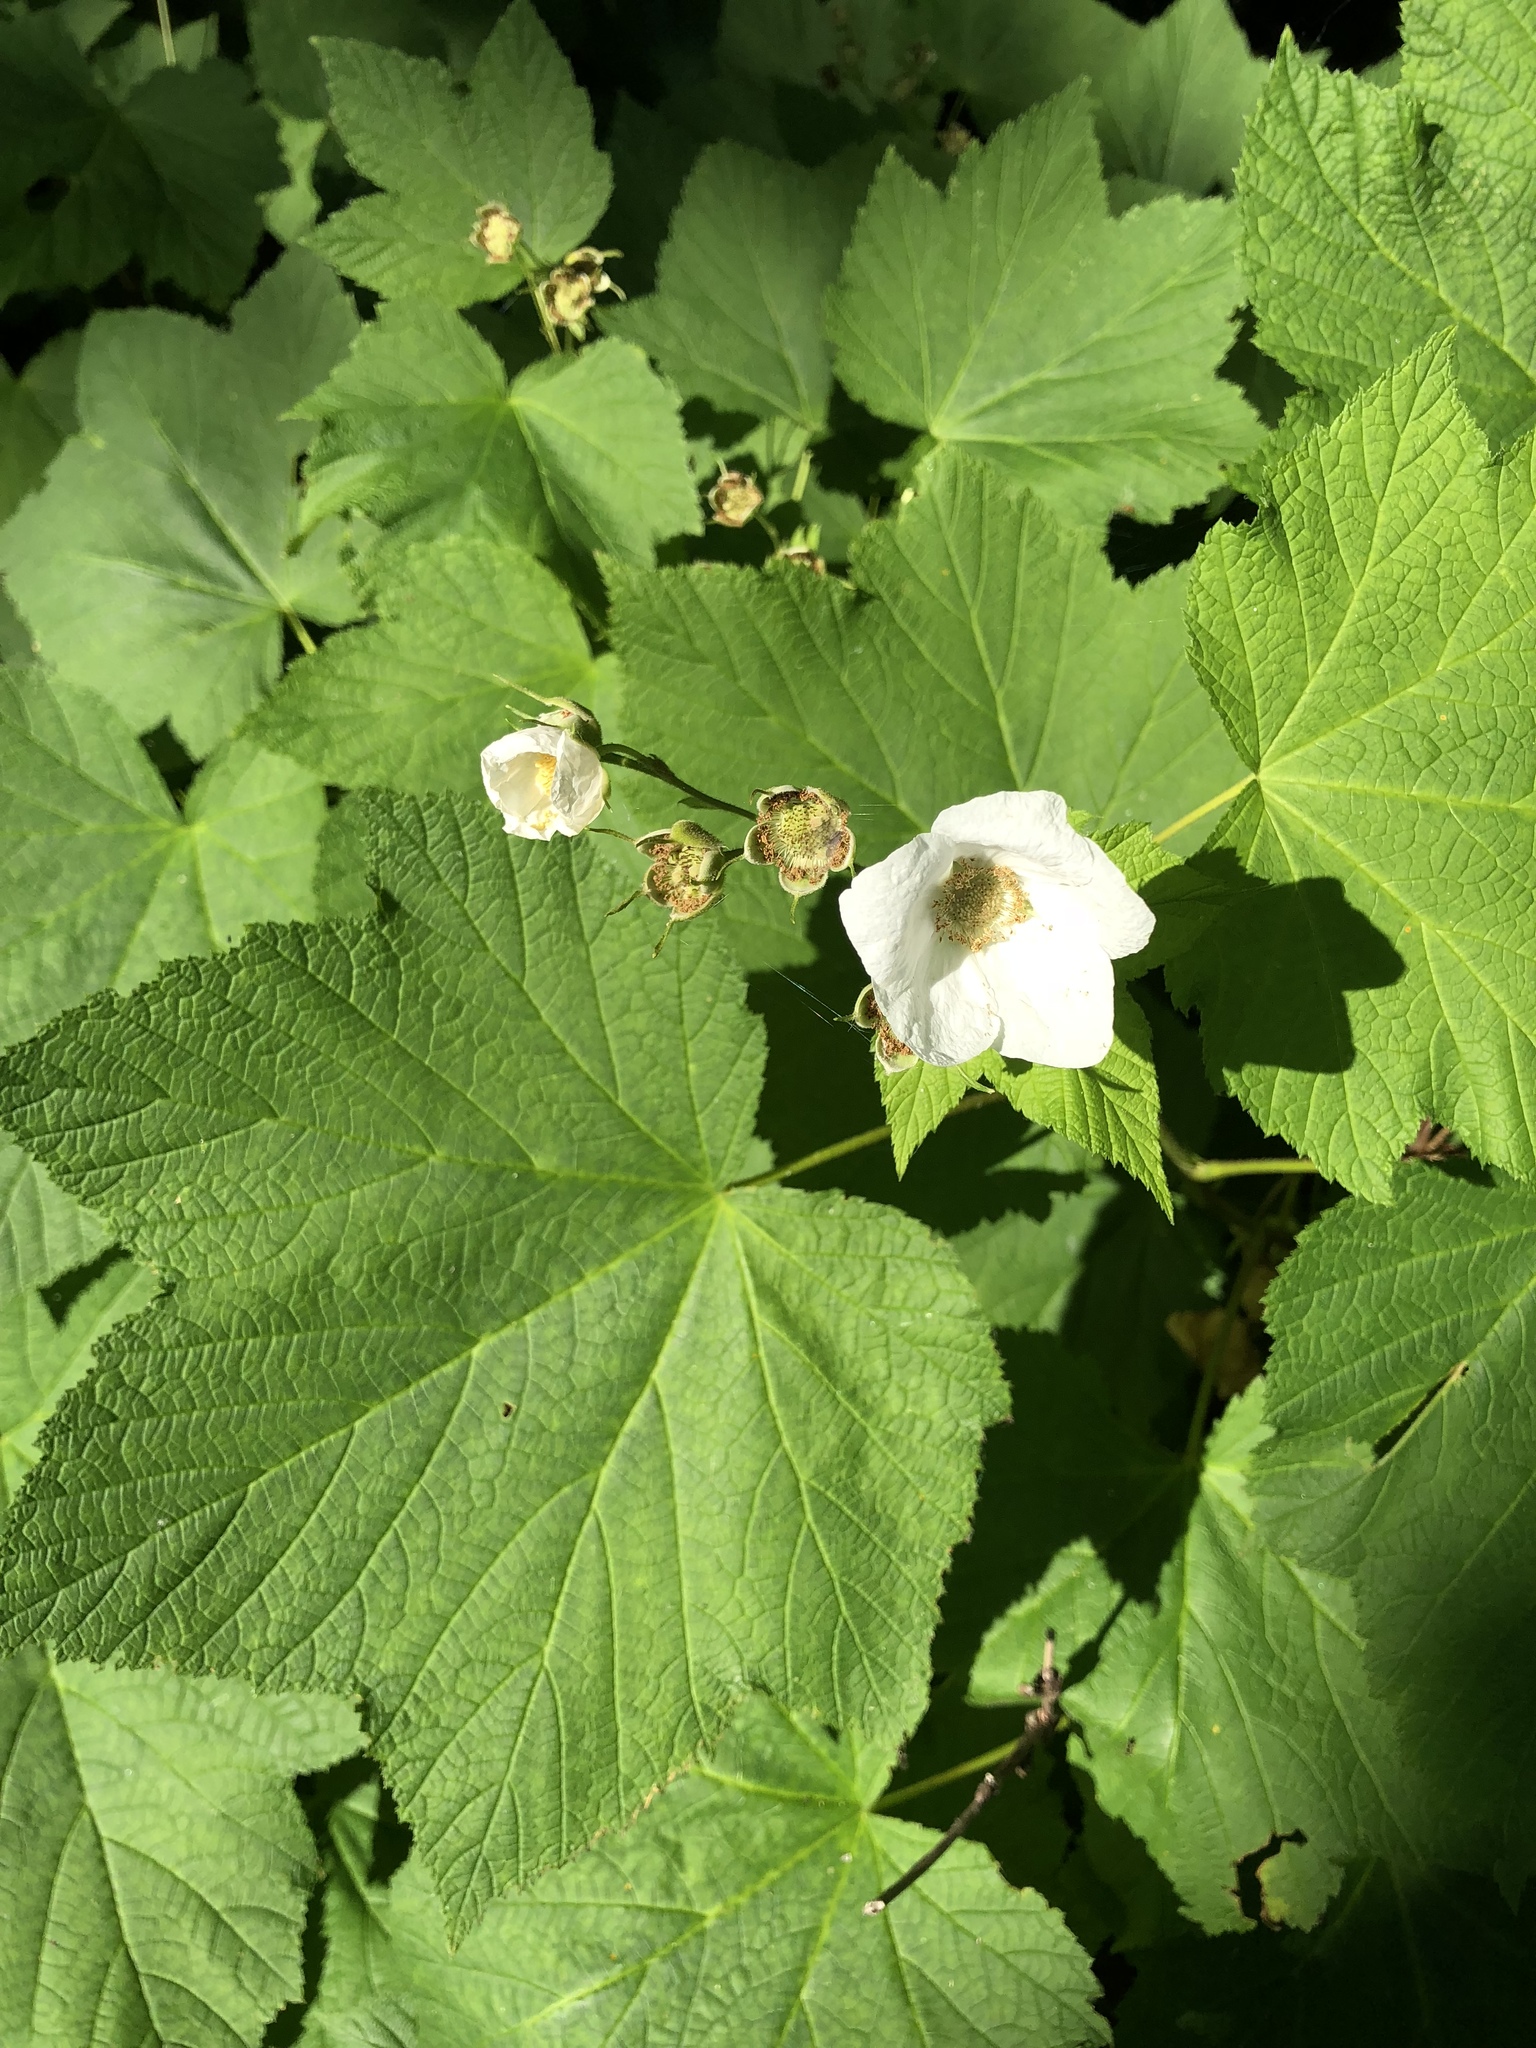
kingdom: Plantae
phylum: Tracheophyta
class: Magnoliopsida
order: Rosales
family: Rosaceae
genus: Rubus
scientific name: Rubus parviflorus
